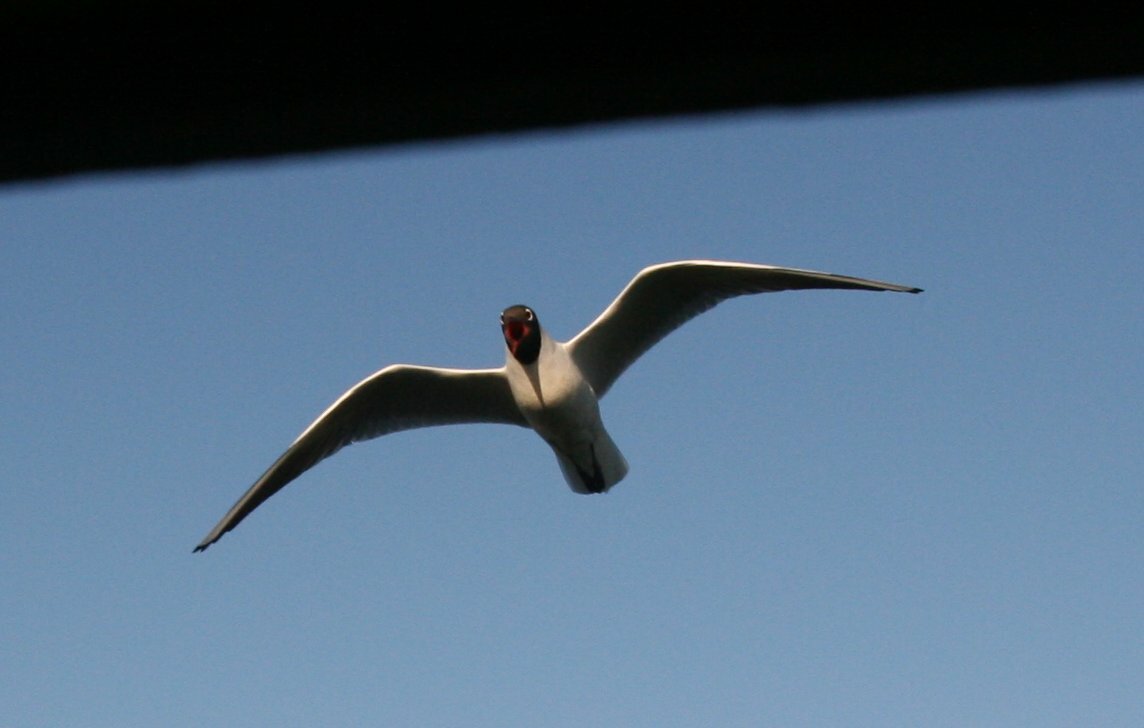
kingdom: Animalia
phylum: Chordata
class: Aves
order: Charadriiformes
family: Laridae
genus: Chroicocephalus
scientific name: Chroicocephalus ridibundus
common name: Black-headed gull
